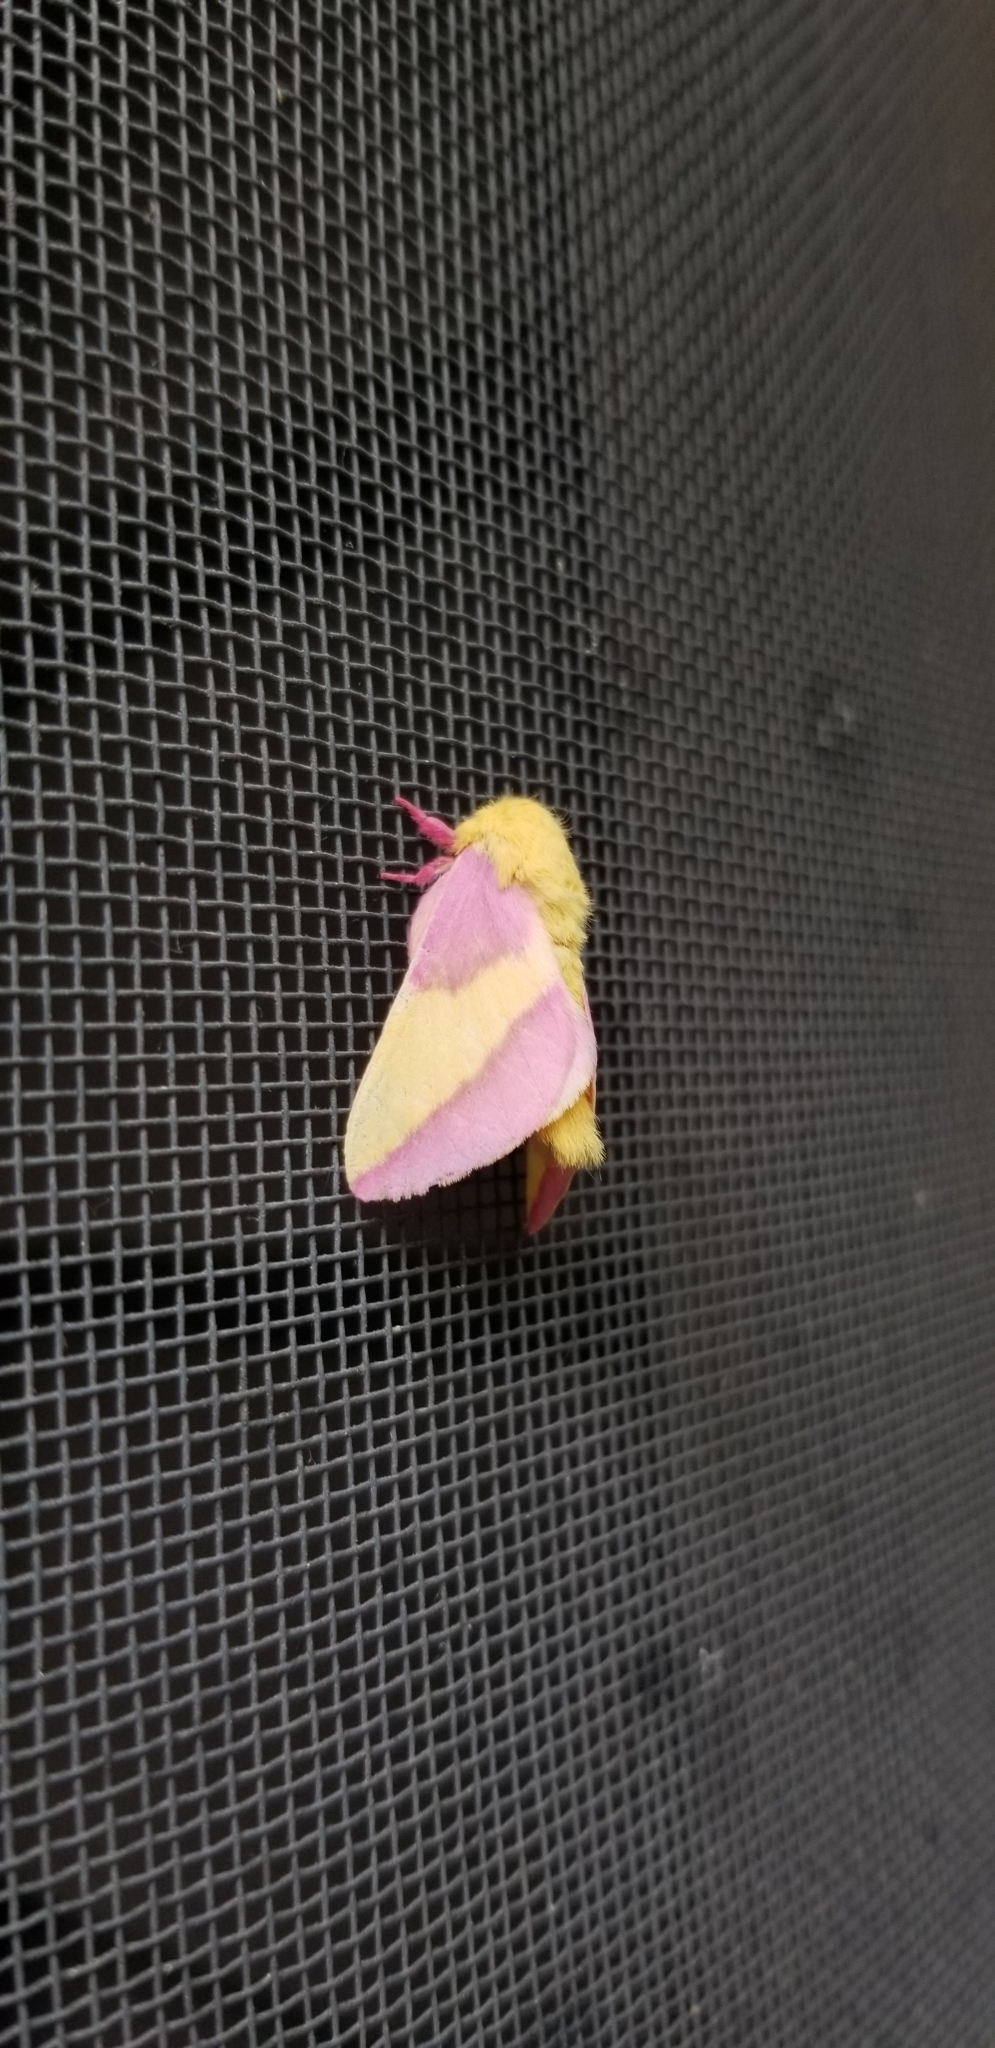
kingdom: Animalia
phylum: Arthropoda
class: Insecta
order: Lepidoptera
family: Saturniidae
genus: Dryocampa
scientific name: Dryocampa rubicunda
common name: Rosy maple moth
